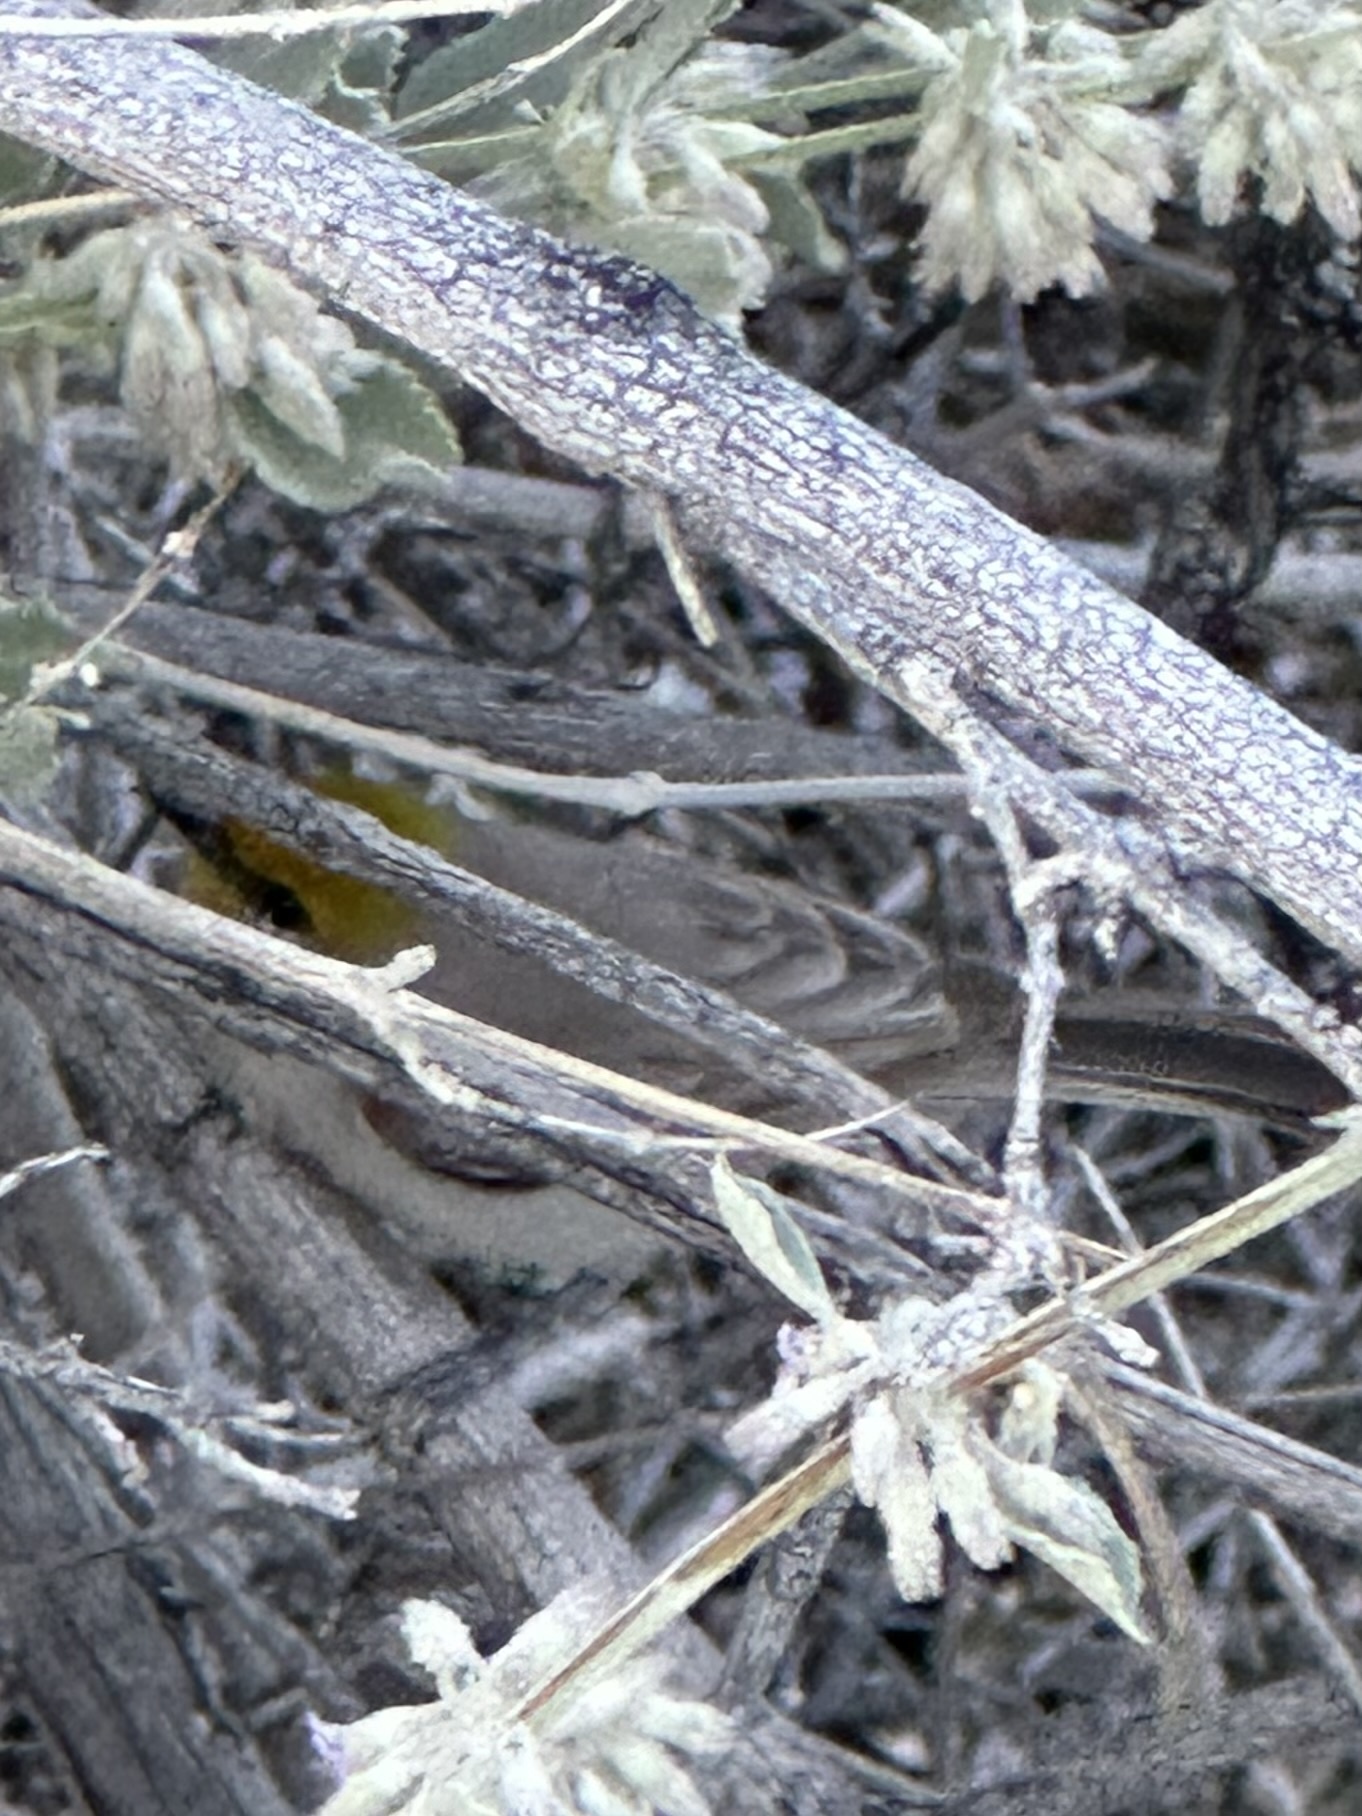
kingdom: Animalia
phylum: Chordata
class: Aves
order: Passeriformes
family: Remizidae
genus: Auriparus
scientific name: Auriparus flaviceps
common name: Verdin
